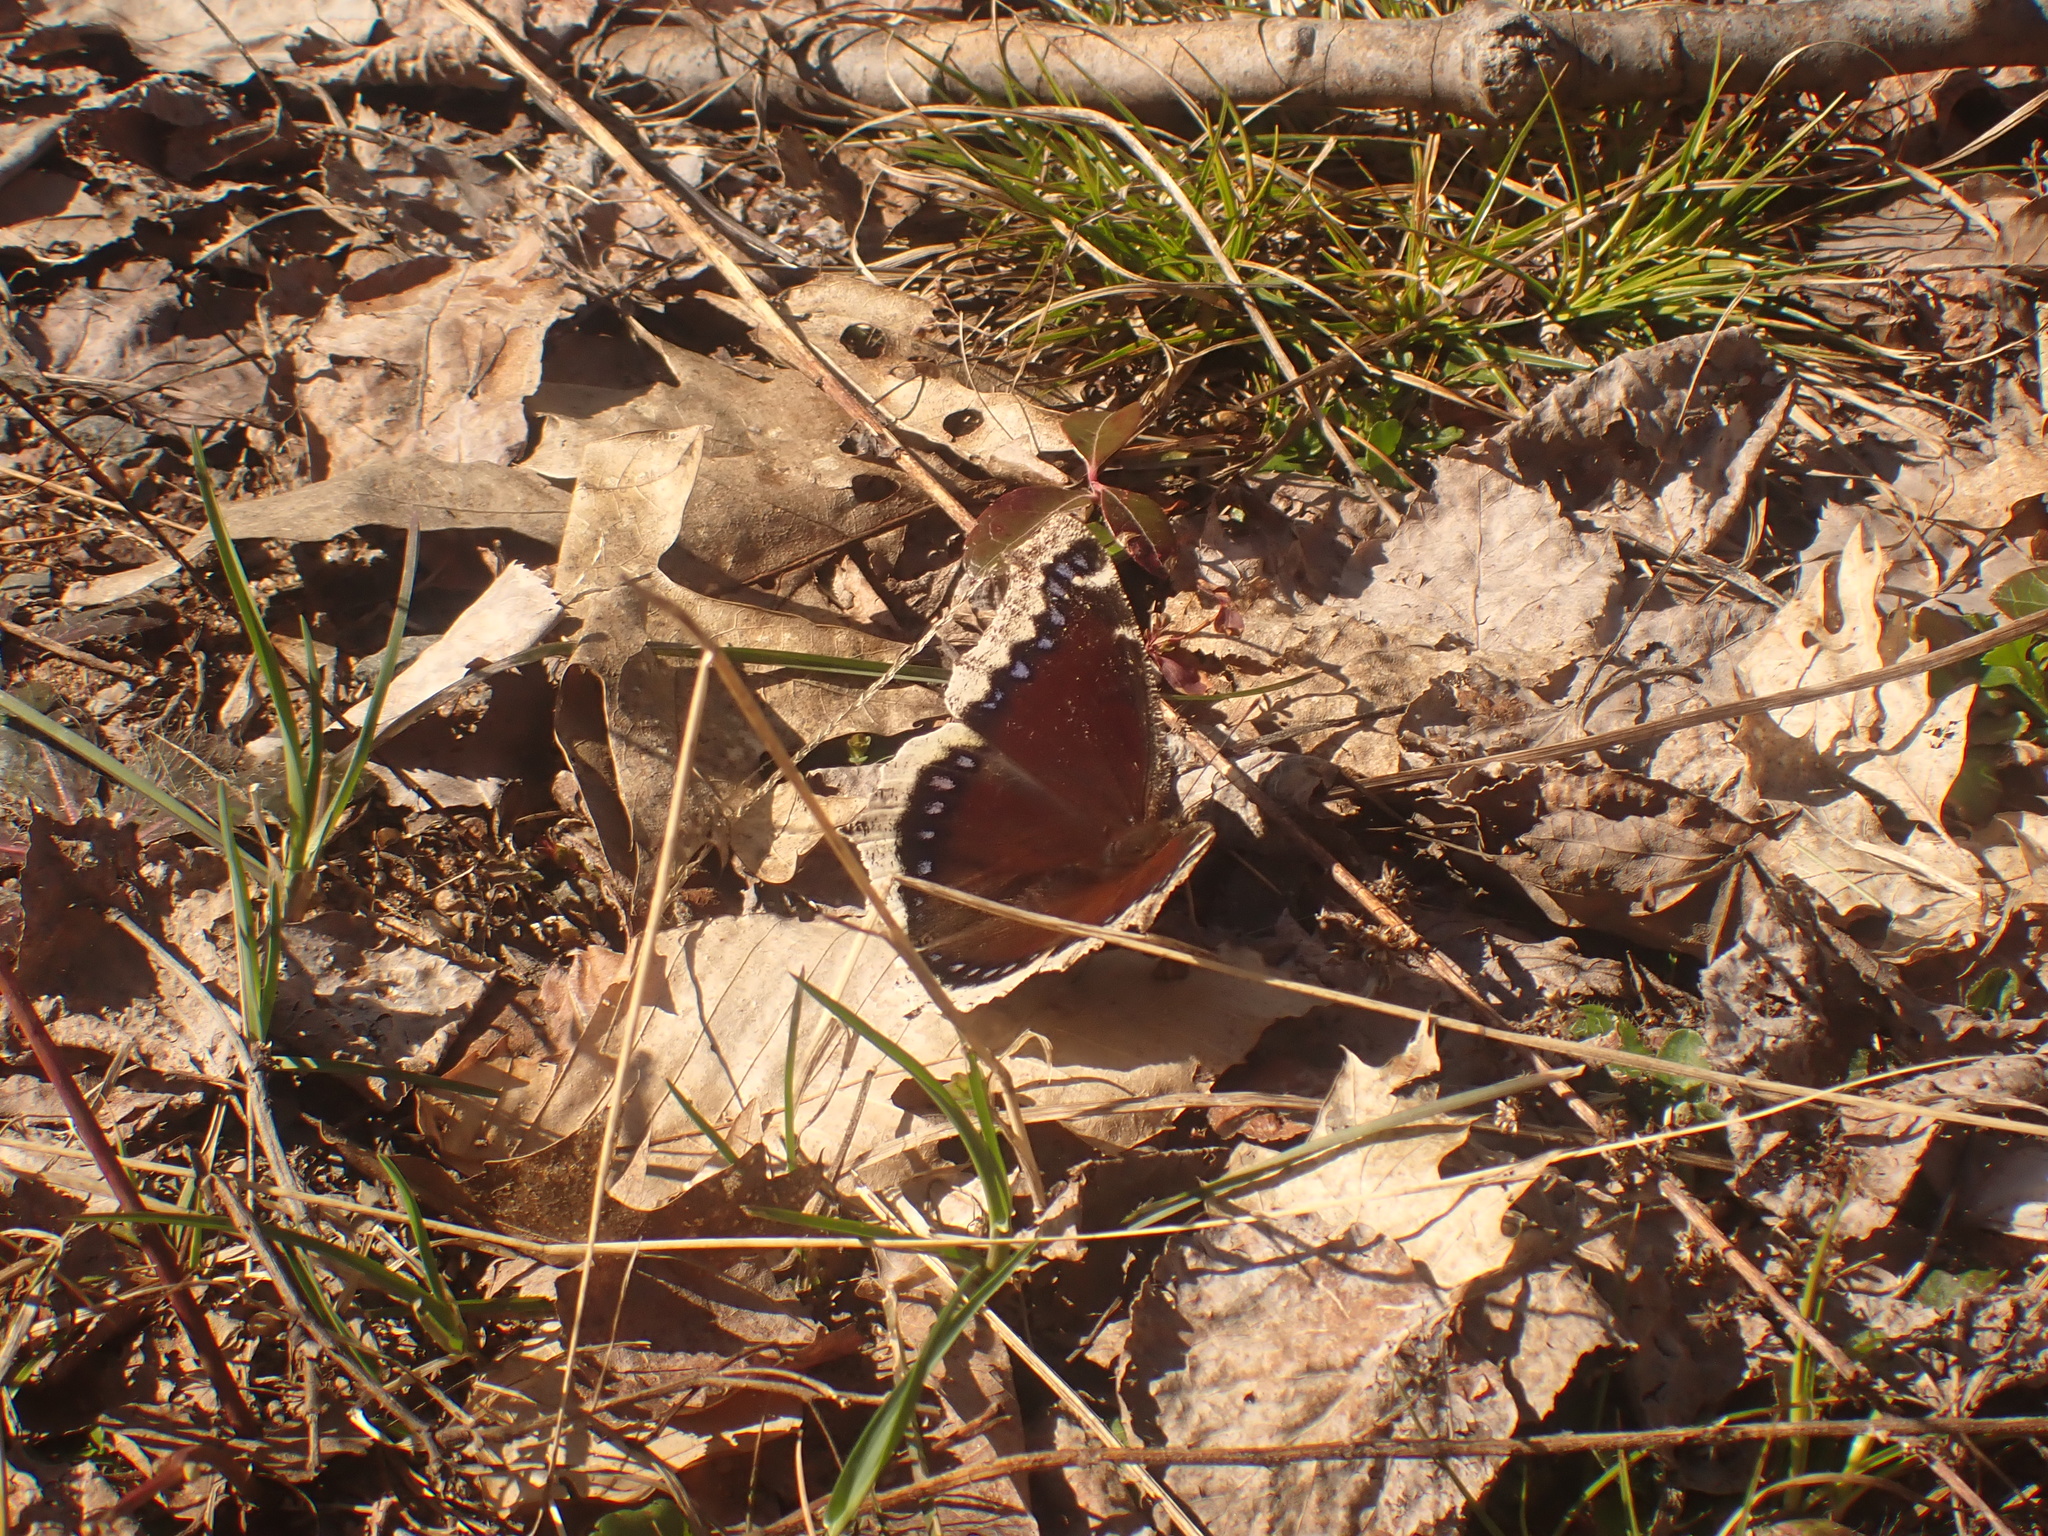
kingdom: Animalia
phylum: Arthropoda
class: Insecta
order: Lepidoptera
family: Nymphalidae
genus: Nymphalis
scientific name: Nymphalis antiopa
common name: Camberwell beauty
